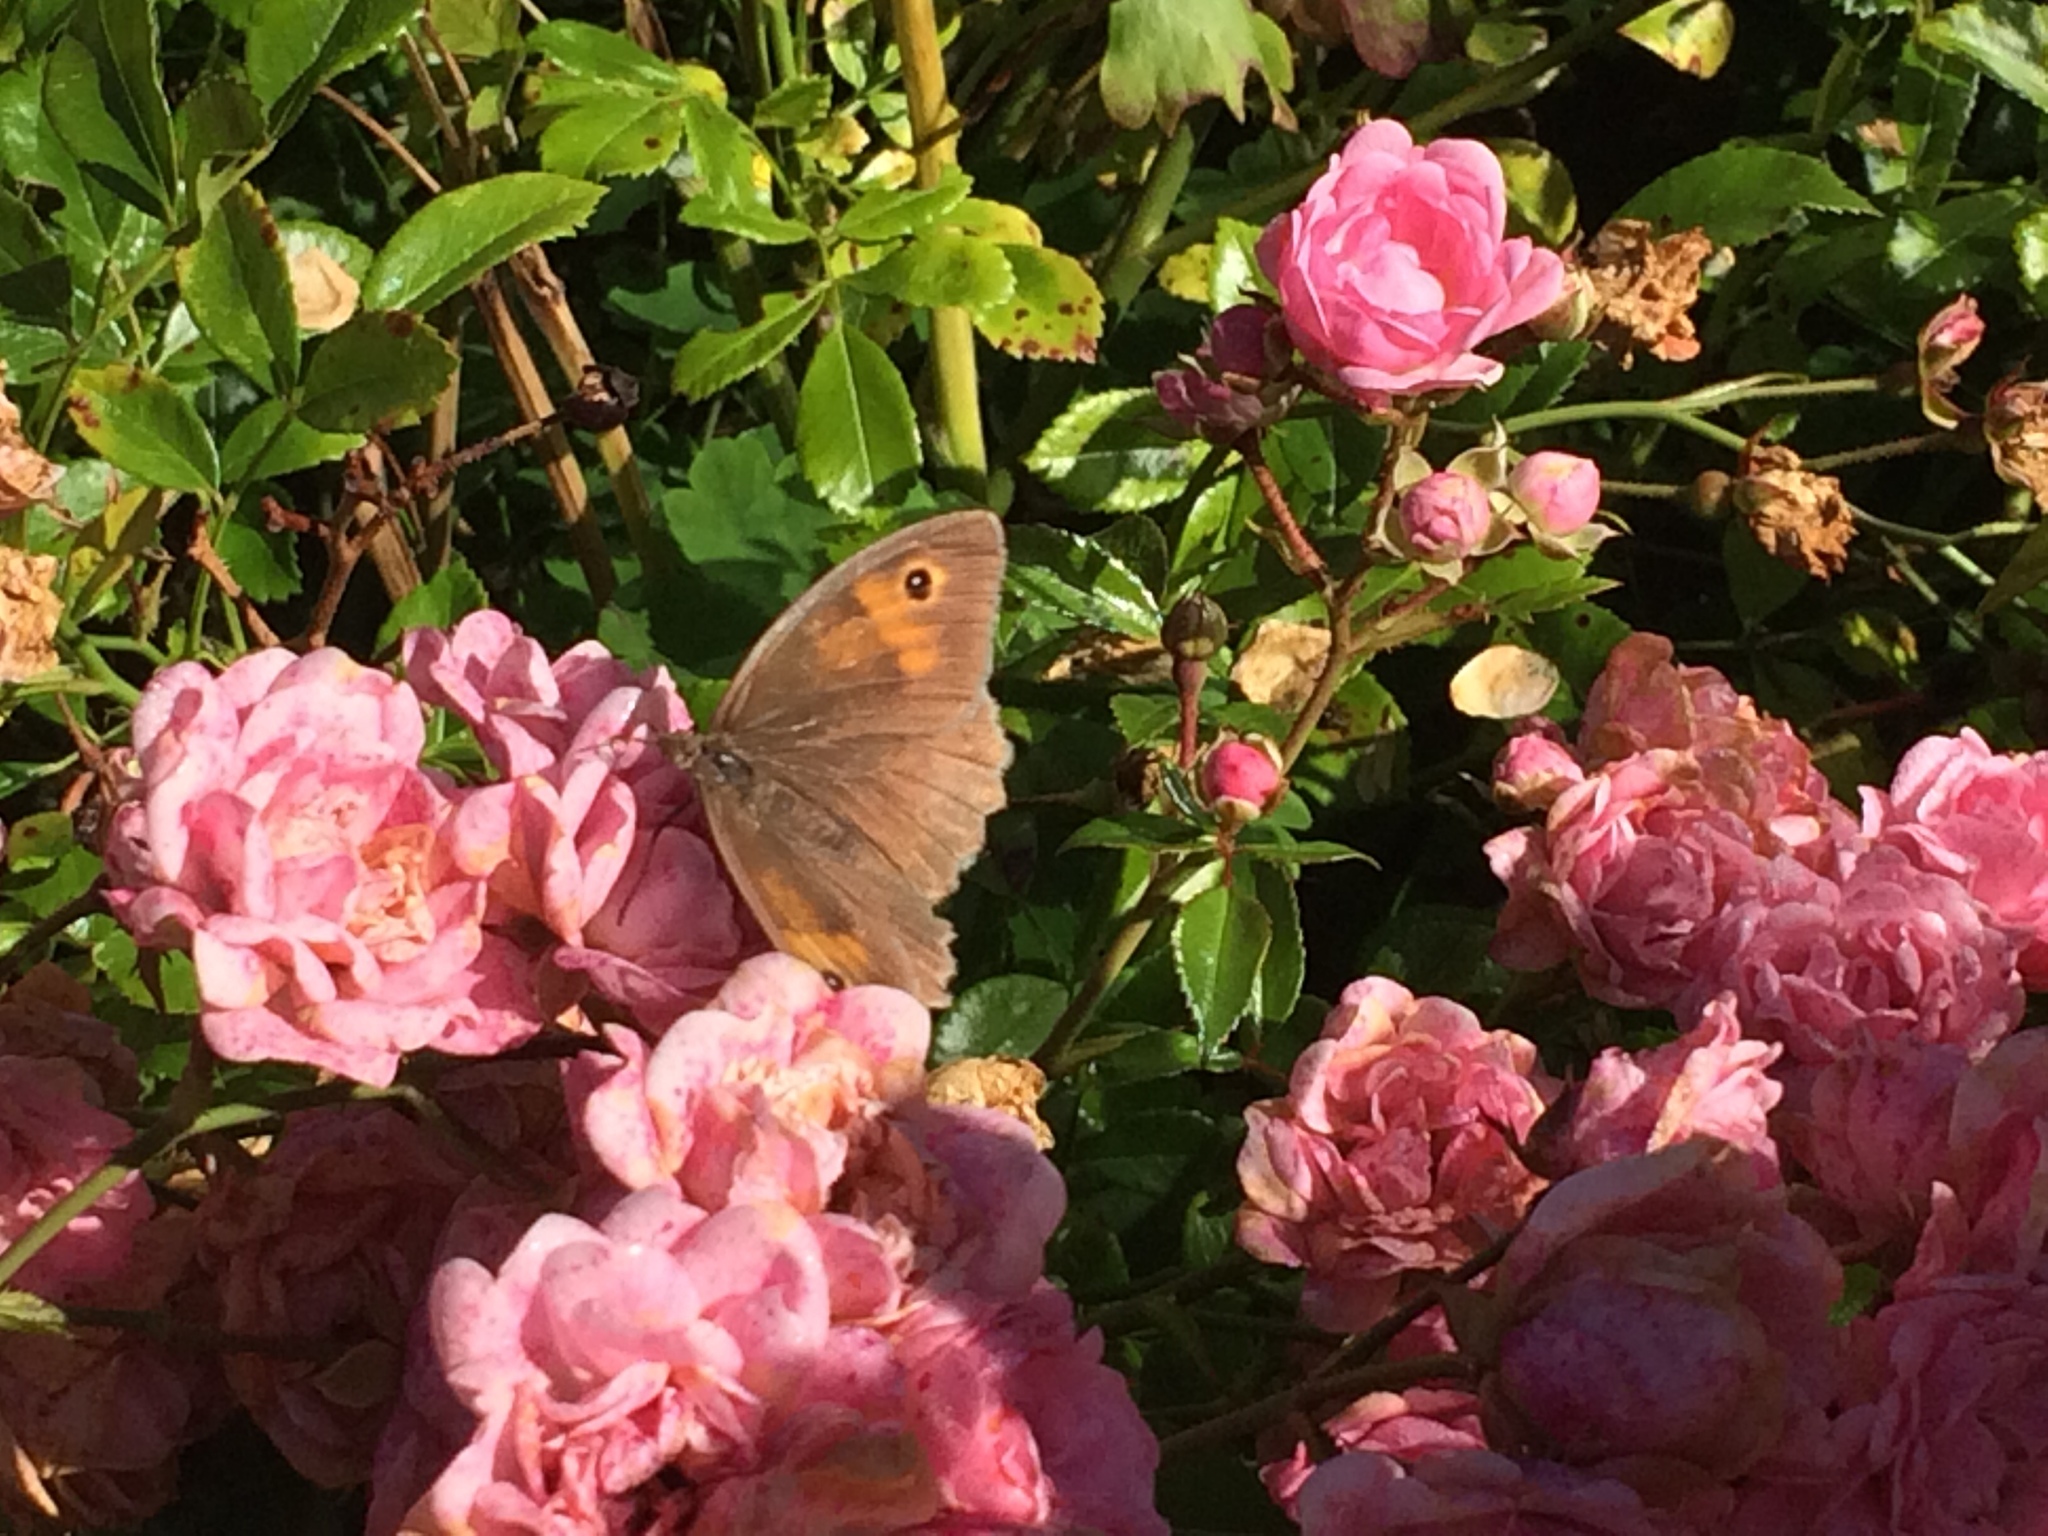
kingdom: Animalia
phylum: Arthropoda
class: Insecta
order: Lepidoptera
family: Nymphalidae
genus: Maniola
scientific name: Maniola jurtina
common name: Meadow brown
